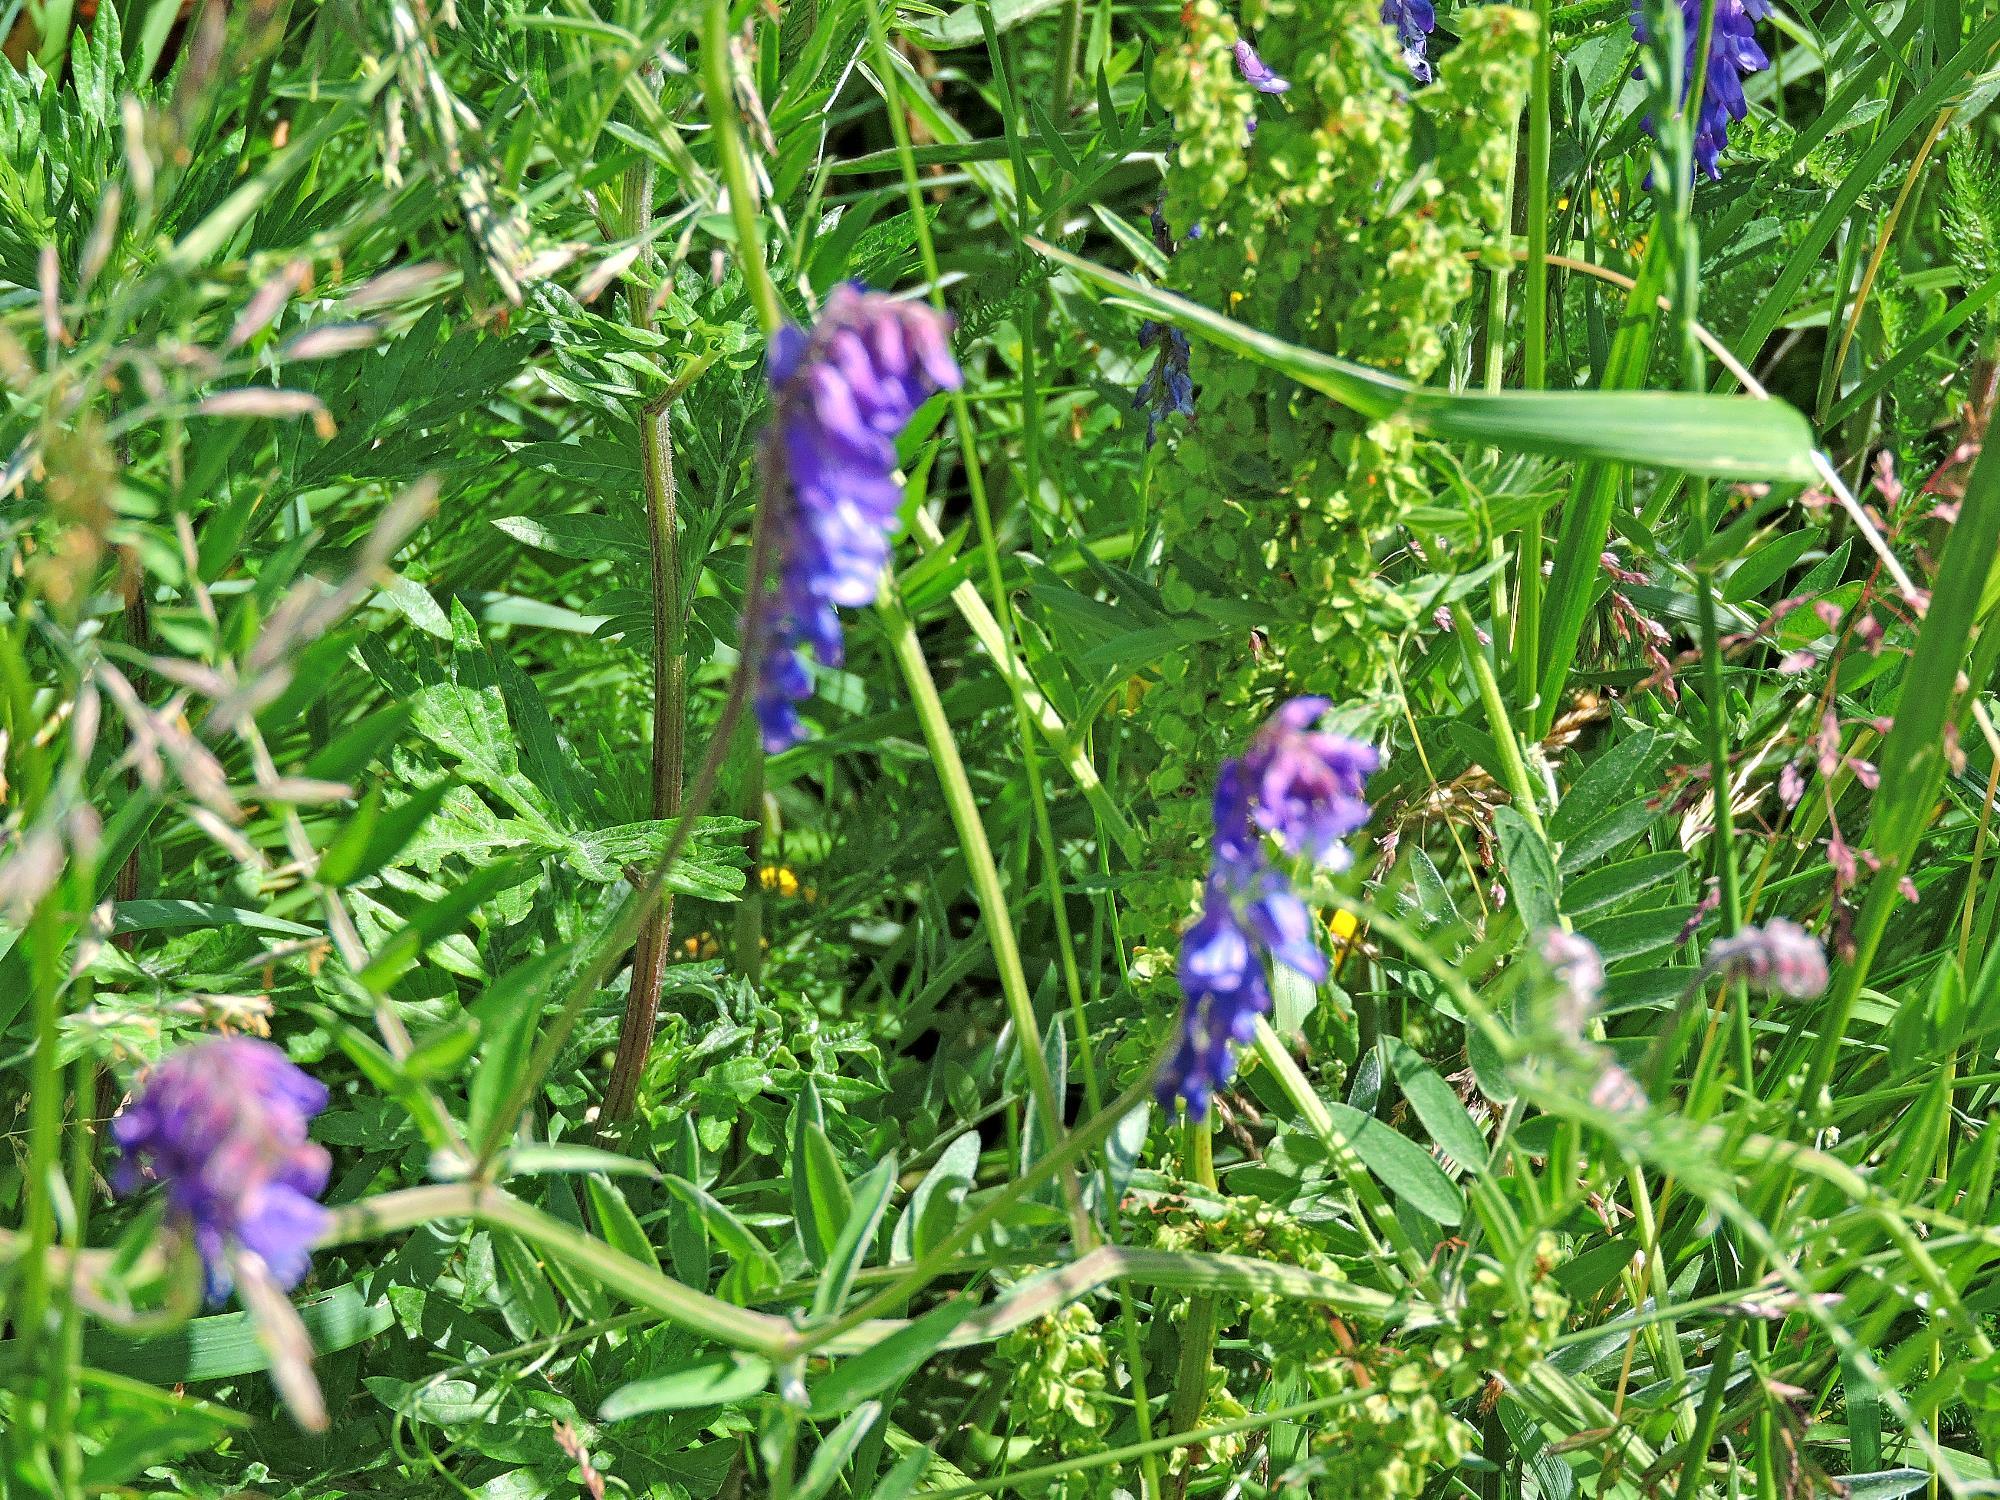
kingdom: Plantae
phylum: Tracheophyta
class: Magnoliopsida
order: Fabales
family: Fabaceae
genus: Vicia
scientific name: Vicia cracca
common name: Bird vetch
